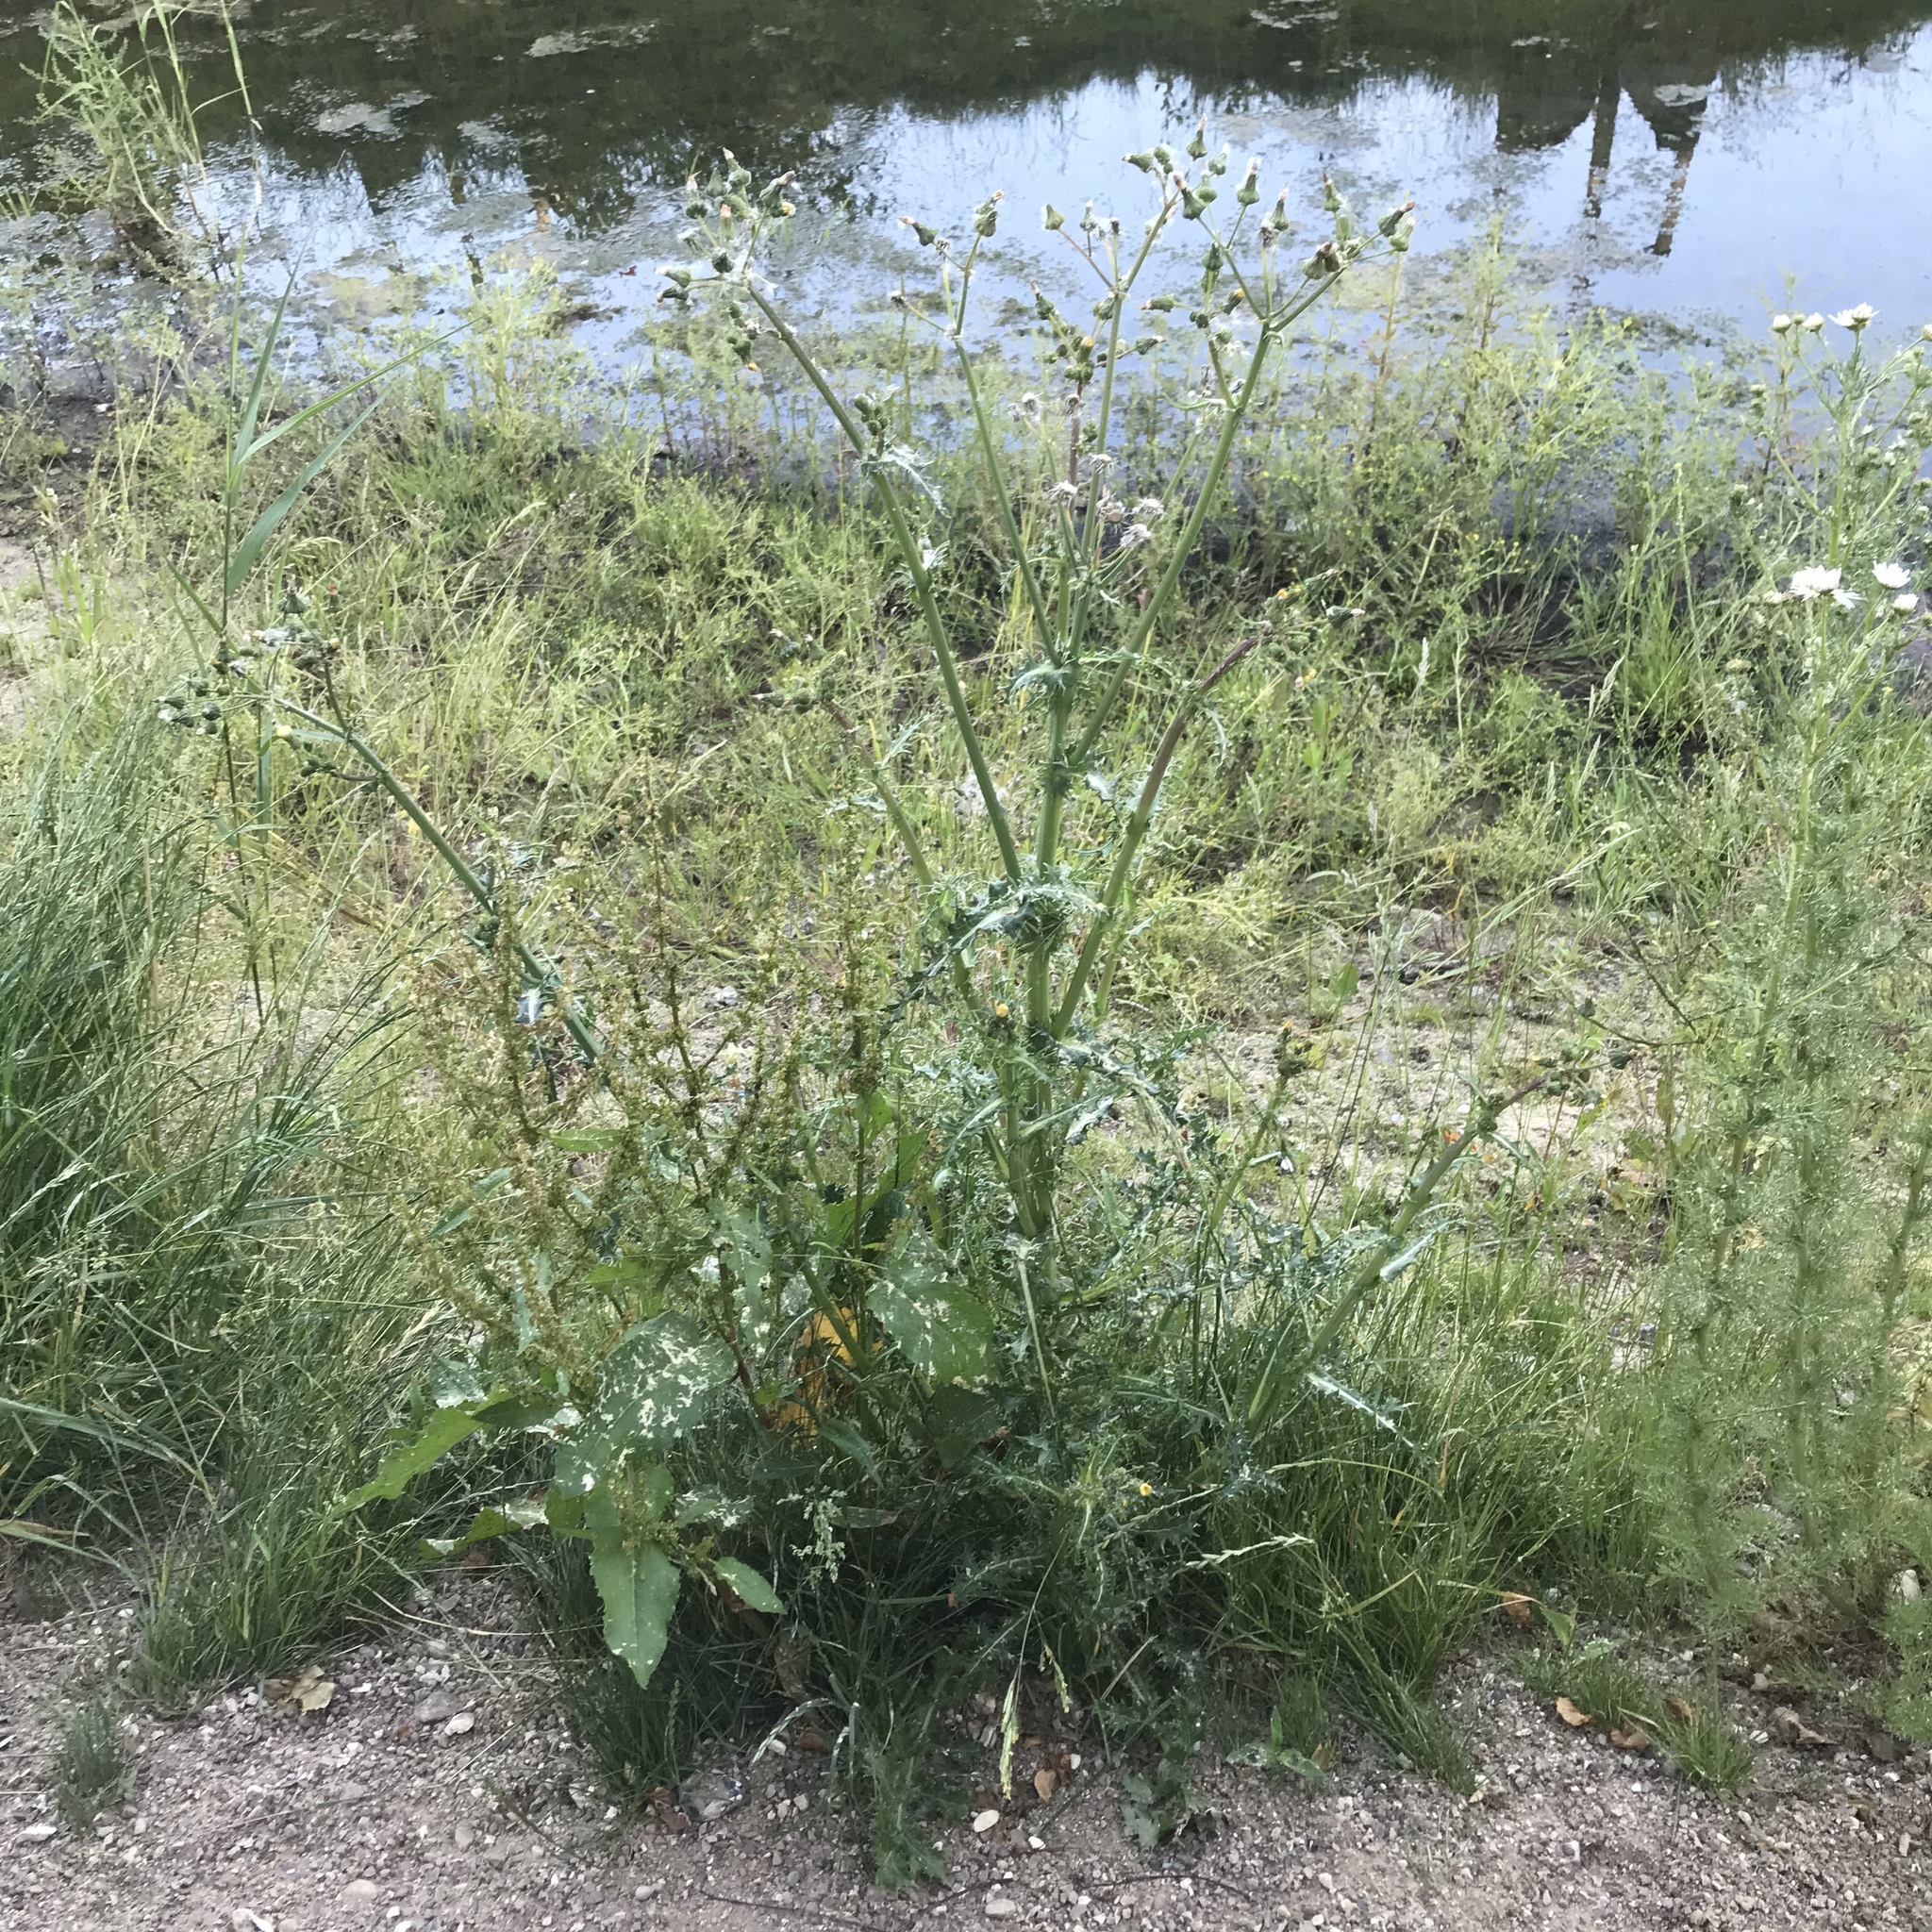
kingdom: Plantae
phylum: Tracheophyta
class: Magnoliopsida
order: Asterales
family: Asteraceae
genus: Sonchus
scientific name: Sonchus asper
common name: Prickly sow-thistle
